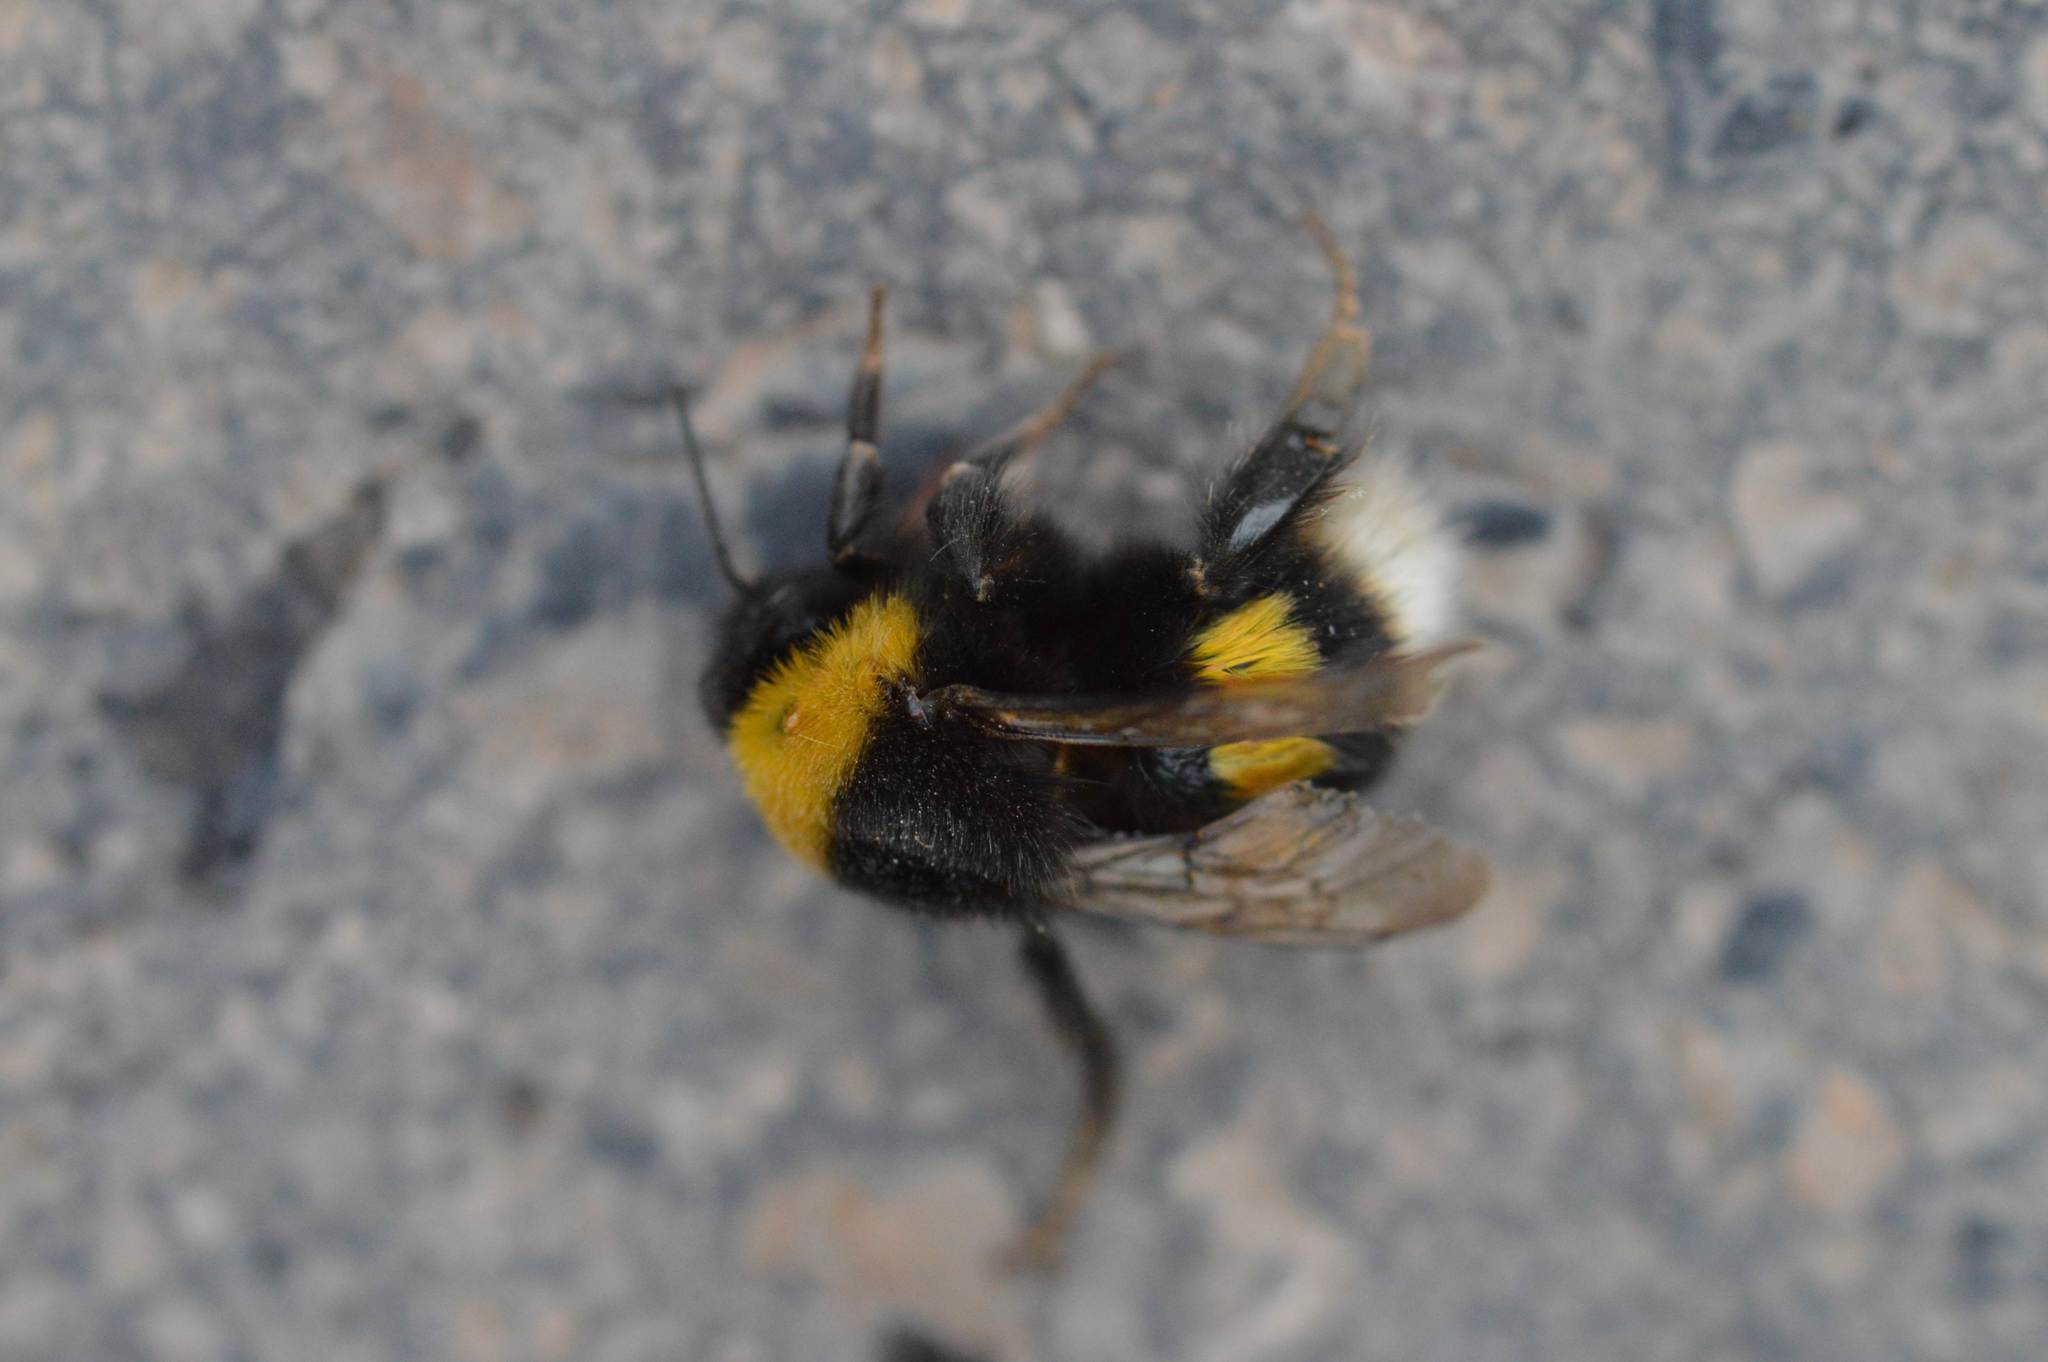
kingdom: Animalia
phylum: Arthropoda
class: Insecta
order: Hymenoptera
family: Apidae
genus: Bombus
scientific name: Bombus terrestris
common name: Buff-tailed bumblebee
